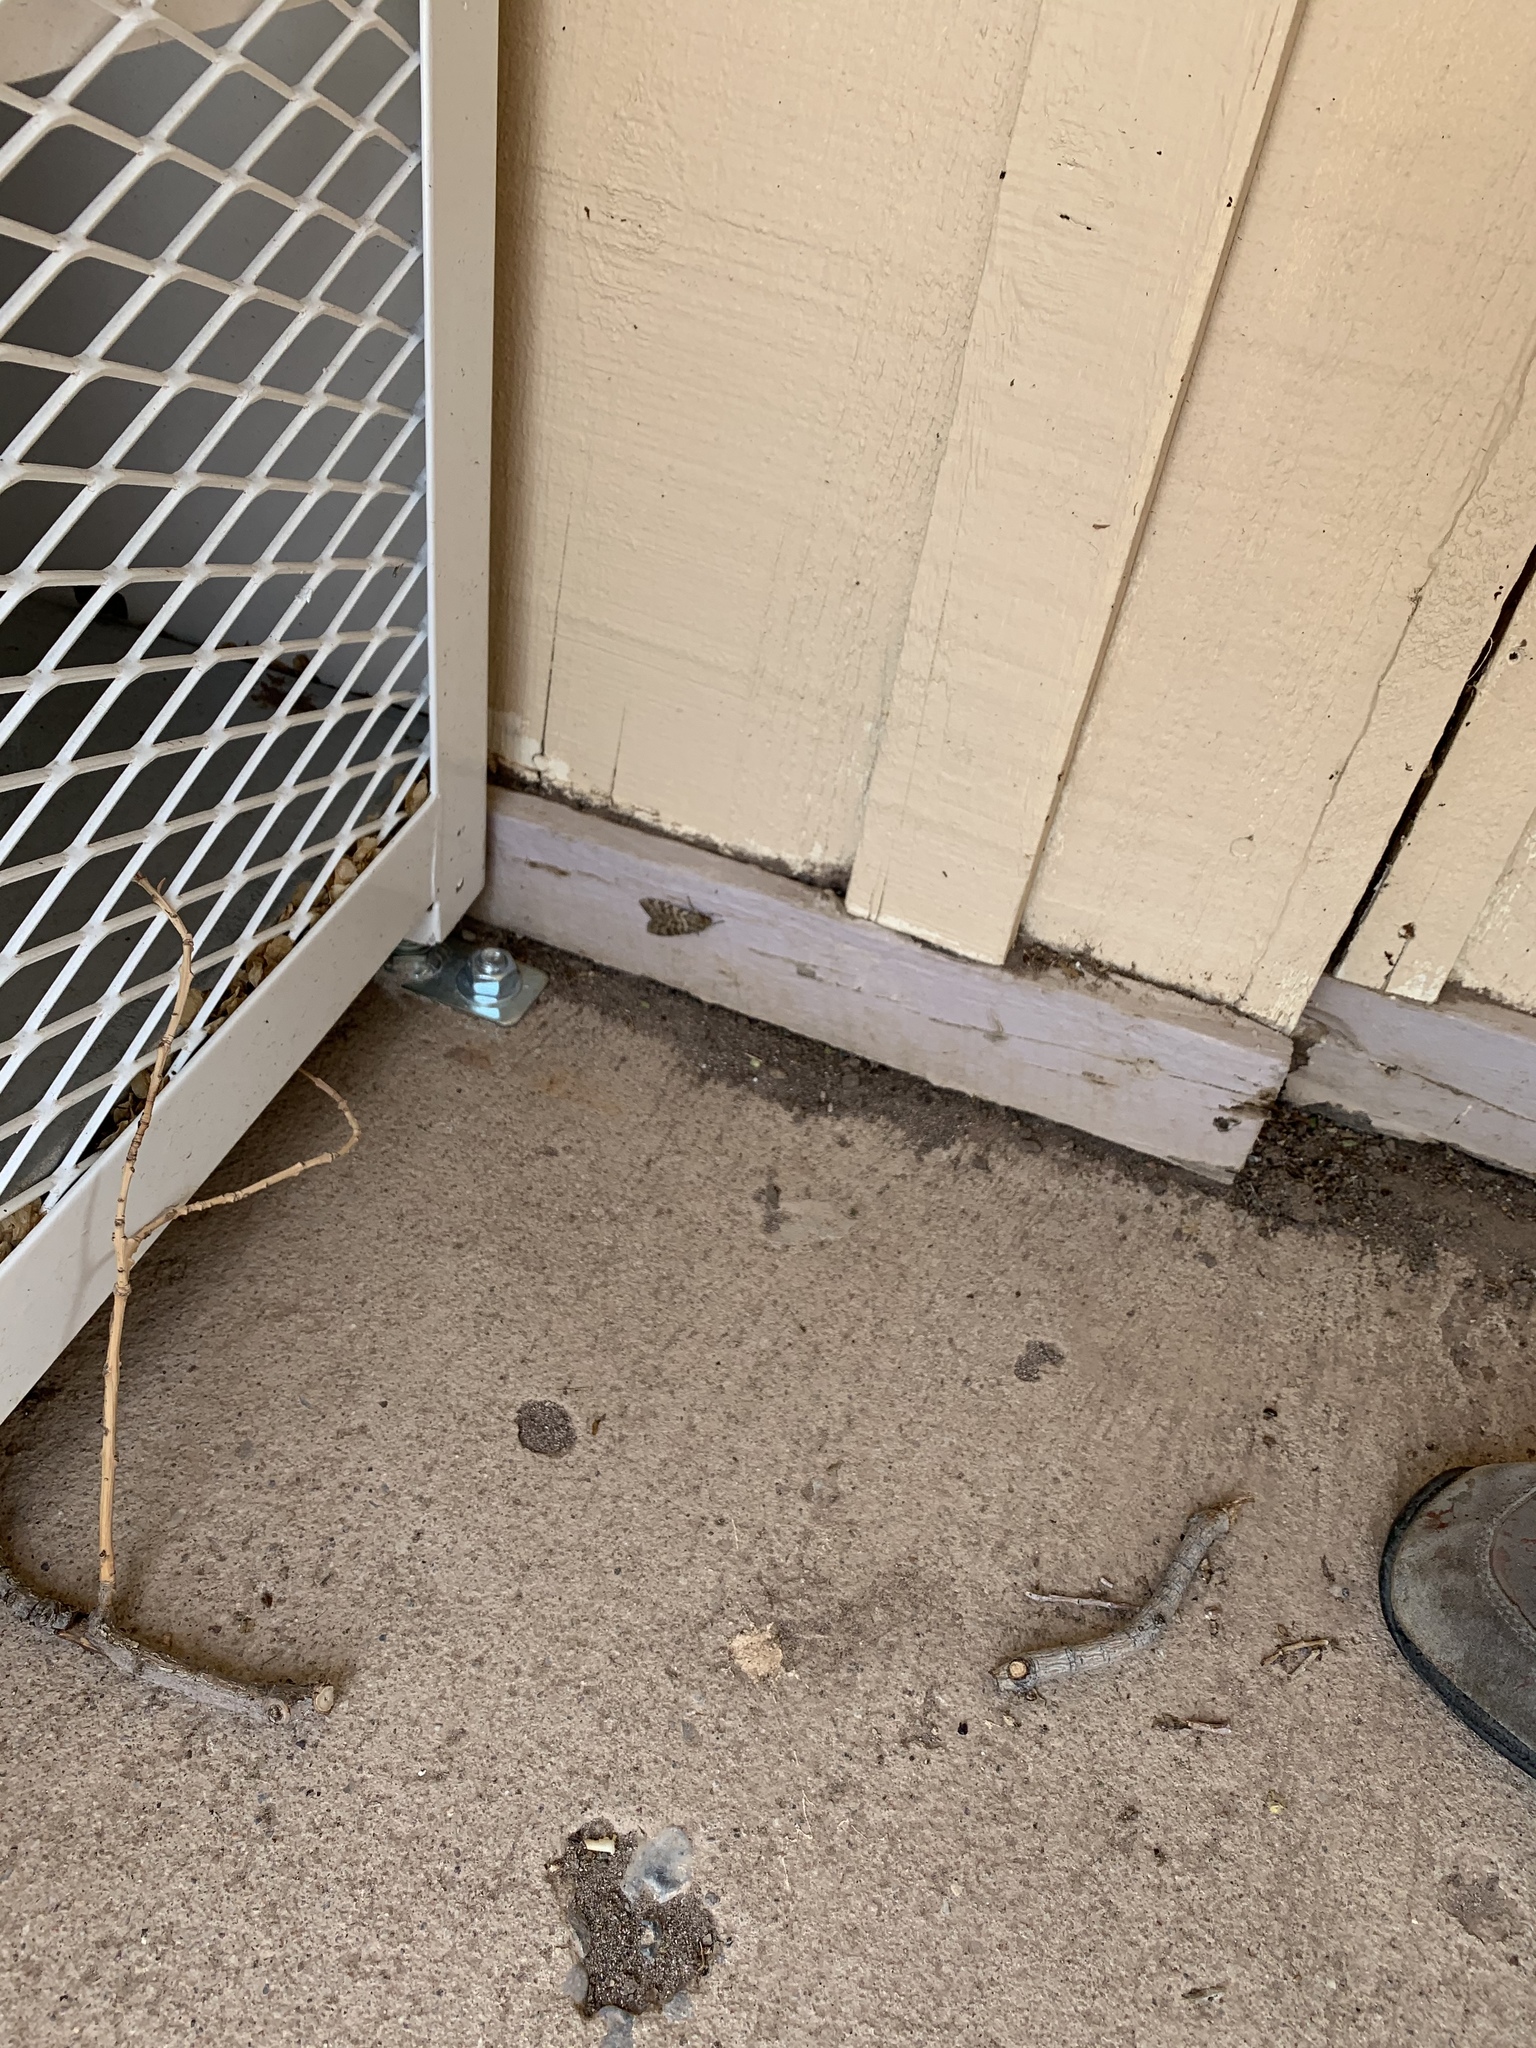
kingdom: Animalia
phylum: Arthropoda
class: Insecta
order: Lepidoptera
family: Erebidae
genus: Hemihyalea
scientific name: Hemihyalea labecula
